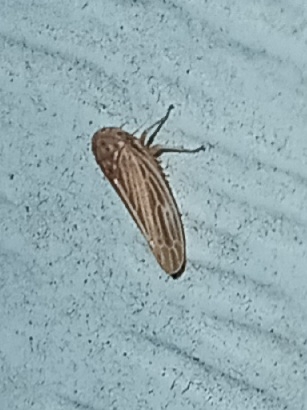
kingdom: Animalia
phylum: Arthropoda
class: Insecta
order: Hemiptera
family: Cicadellidae
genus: Agallia
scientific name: Agallia constricta
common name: The constricted leafhopper
